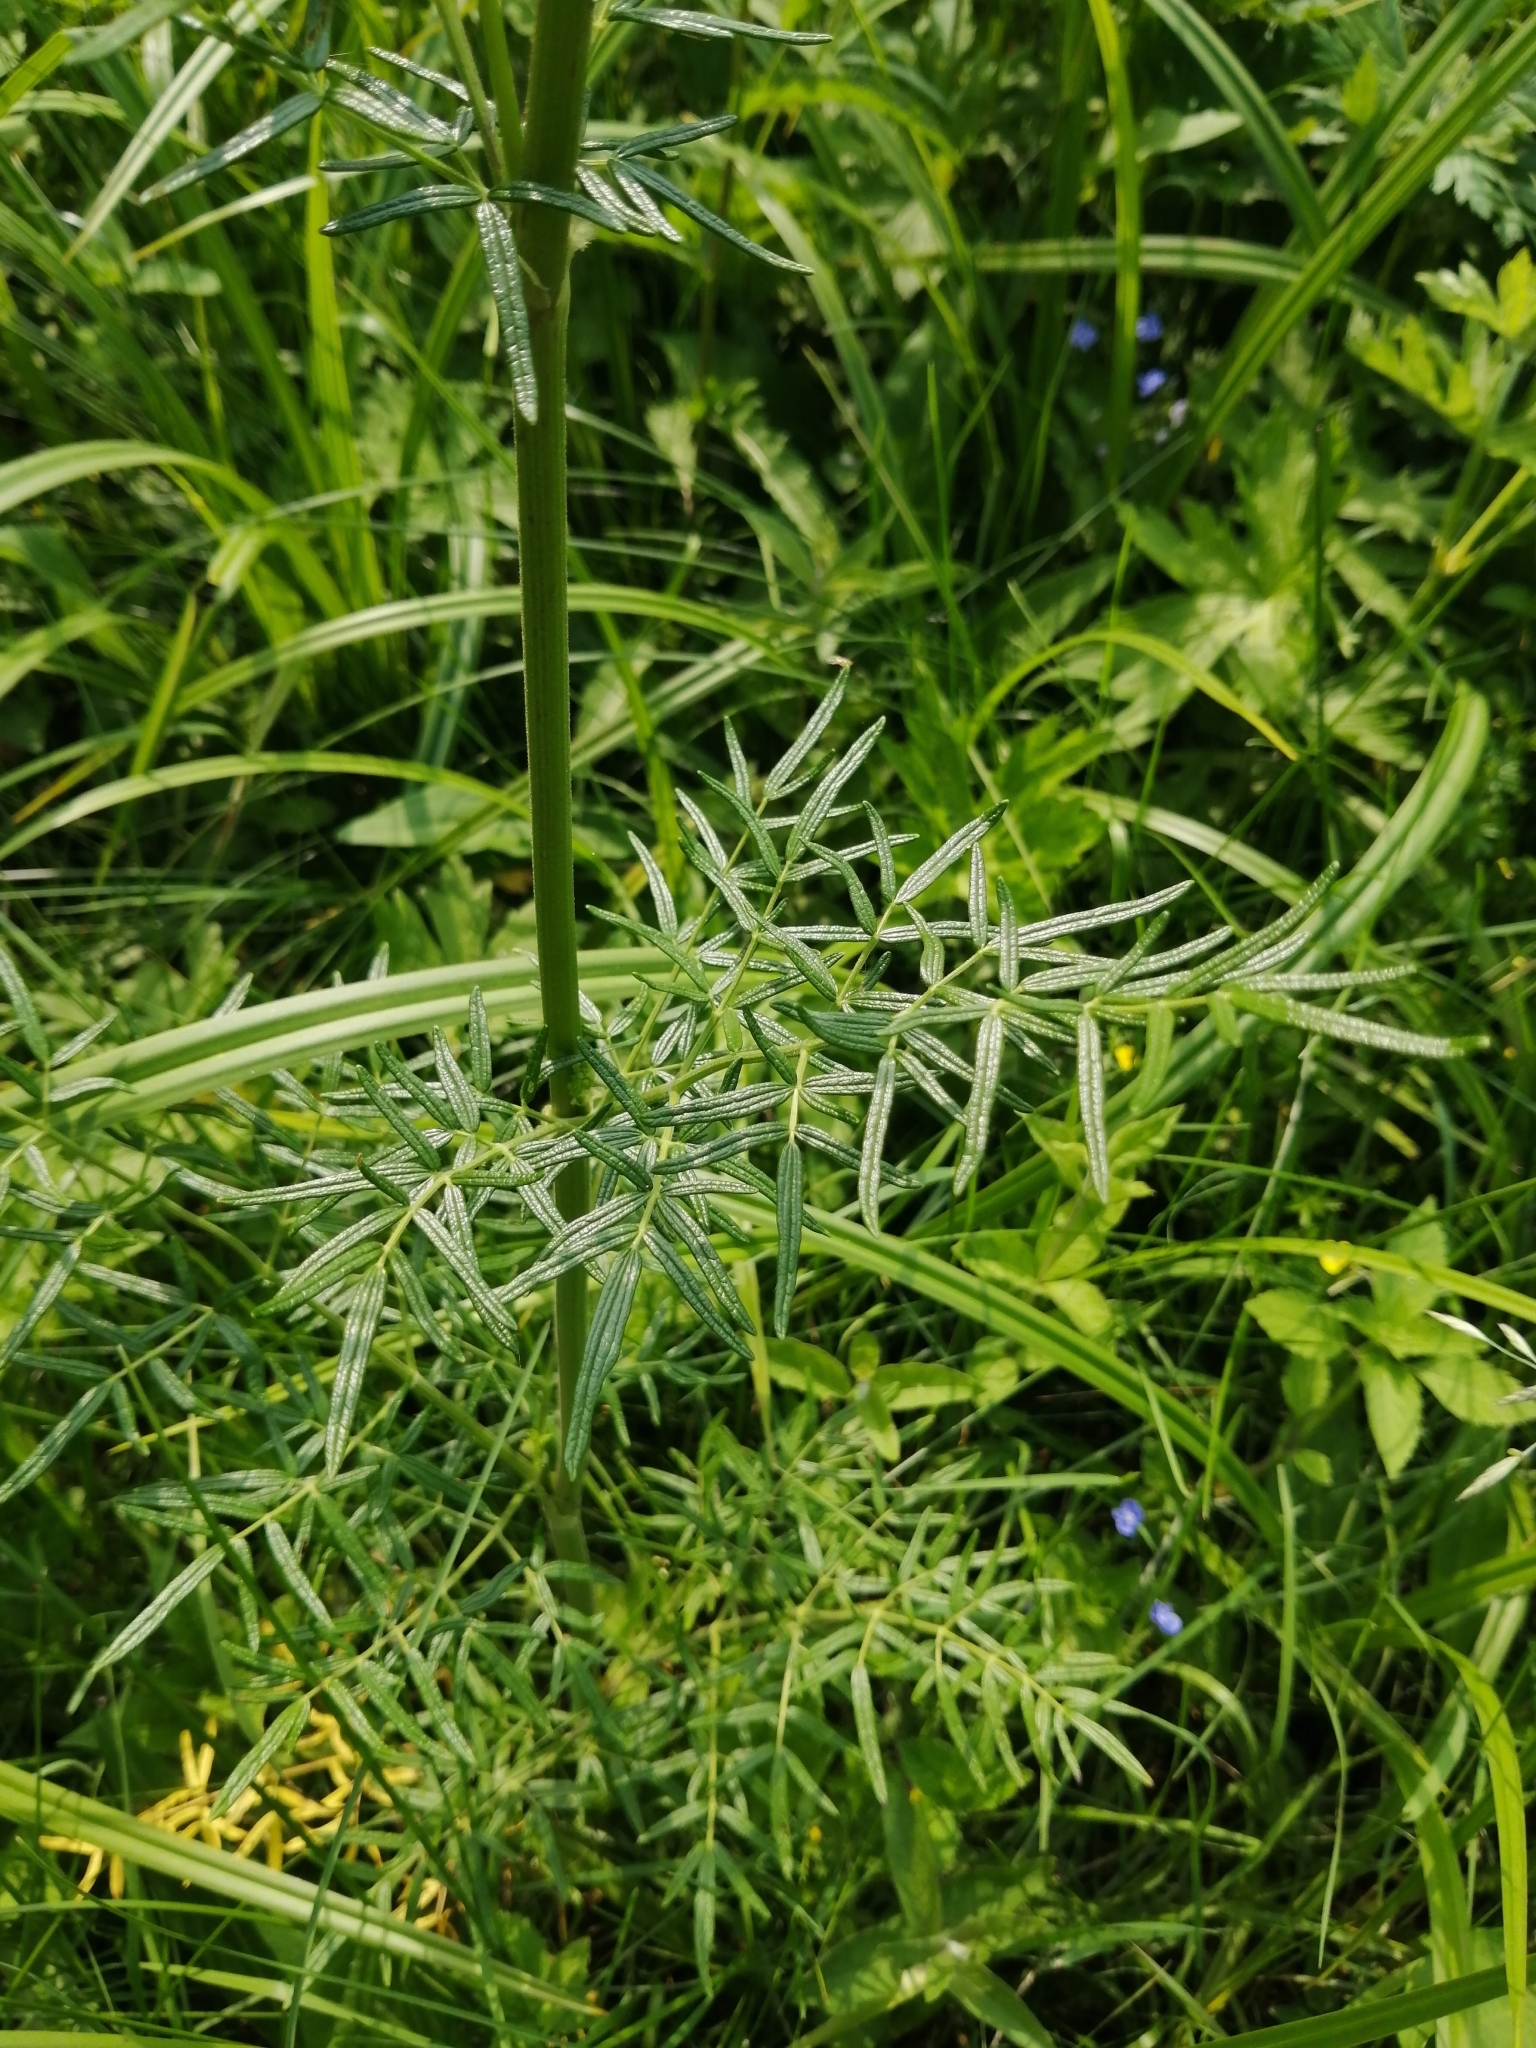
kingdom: Plantae
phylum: Tracheophyta
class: Magnoliopsida
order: Ranunculales
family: Ranunculaceae
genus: Thalictrum
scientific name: Thalictrum lucidum
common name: Shining meadow-rue
